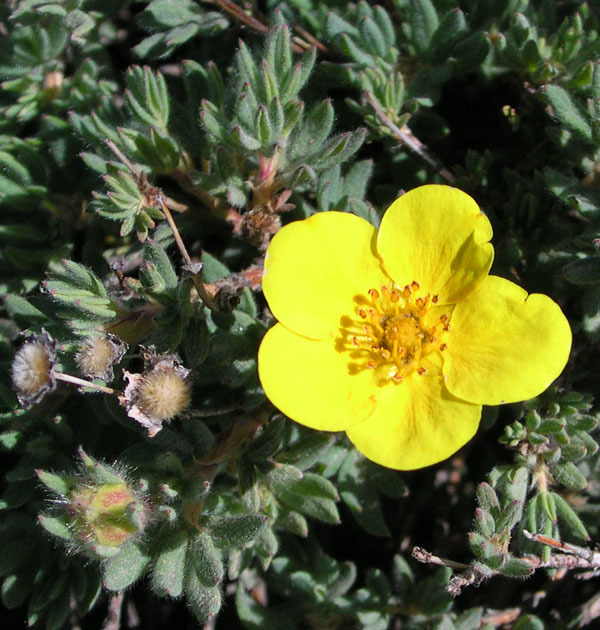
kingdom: Plantae
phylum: Tracheophyta
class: Magnoliopsida
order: Rosales
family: Rosaceae
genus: Dasiphora
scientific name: Dasiphora fruticosa
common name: Shrubby cinquefoil
